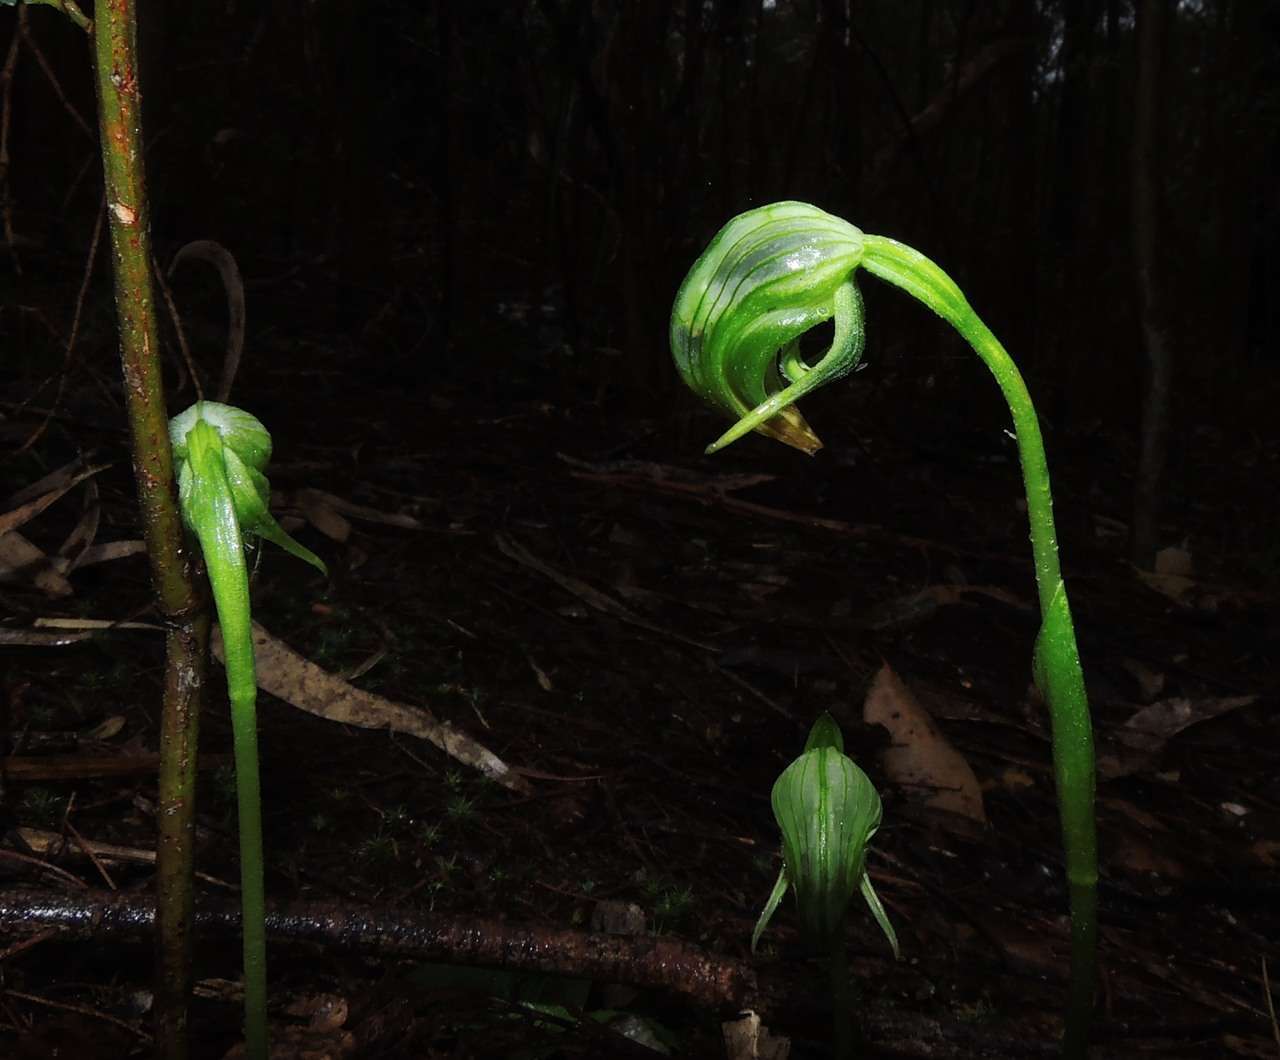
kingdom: Plantae
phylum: Tracheophyta
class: Liliopsida
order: Asparagales
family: Orchidaceae
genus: Pterostylis
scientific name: Pterostylis nutans
